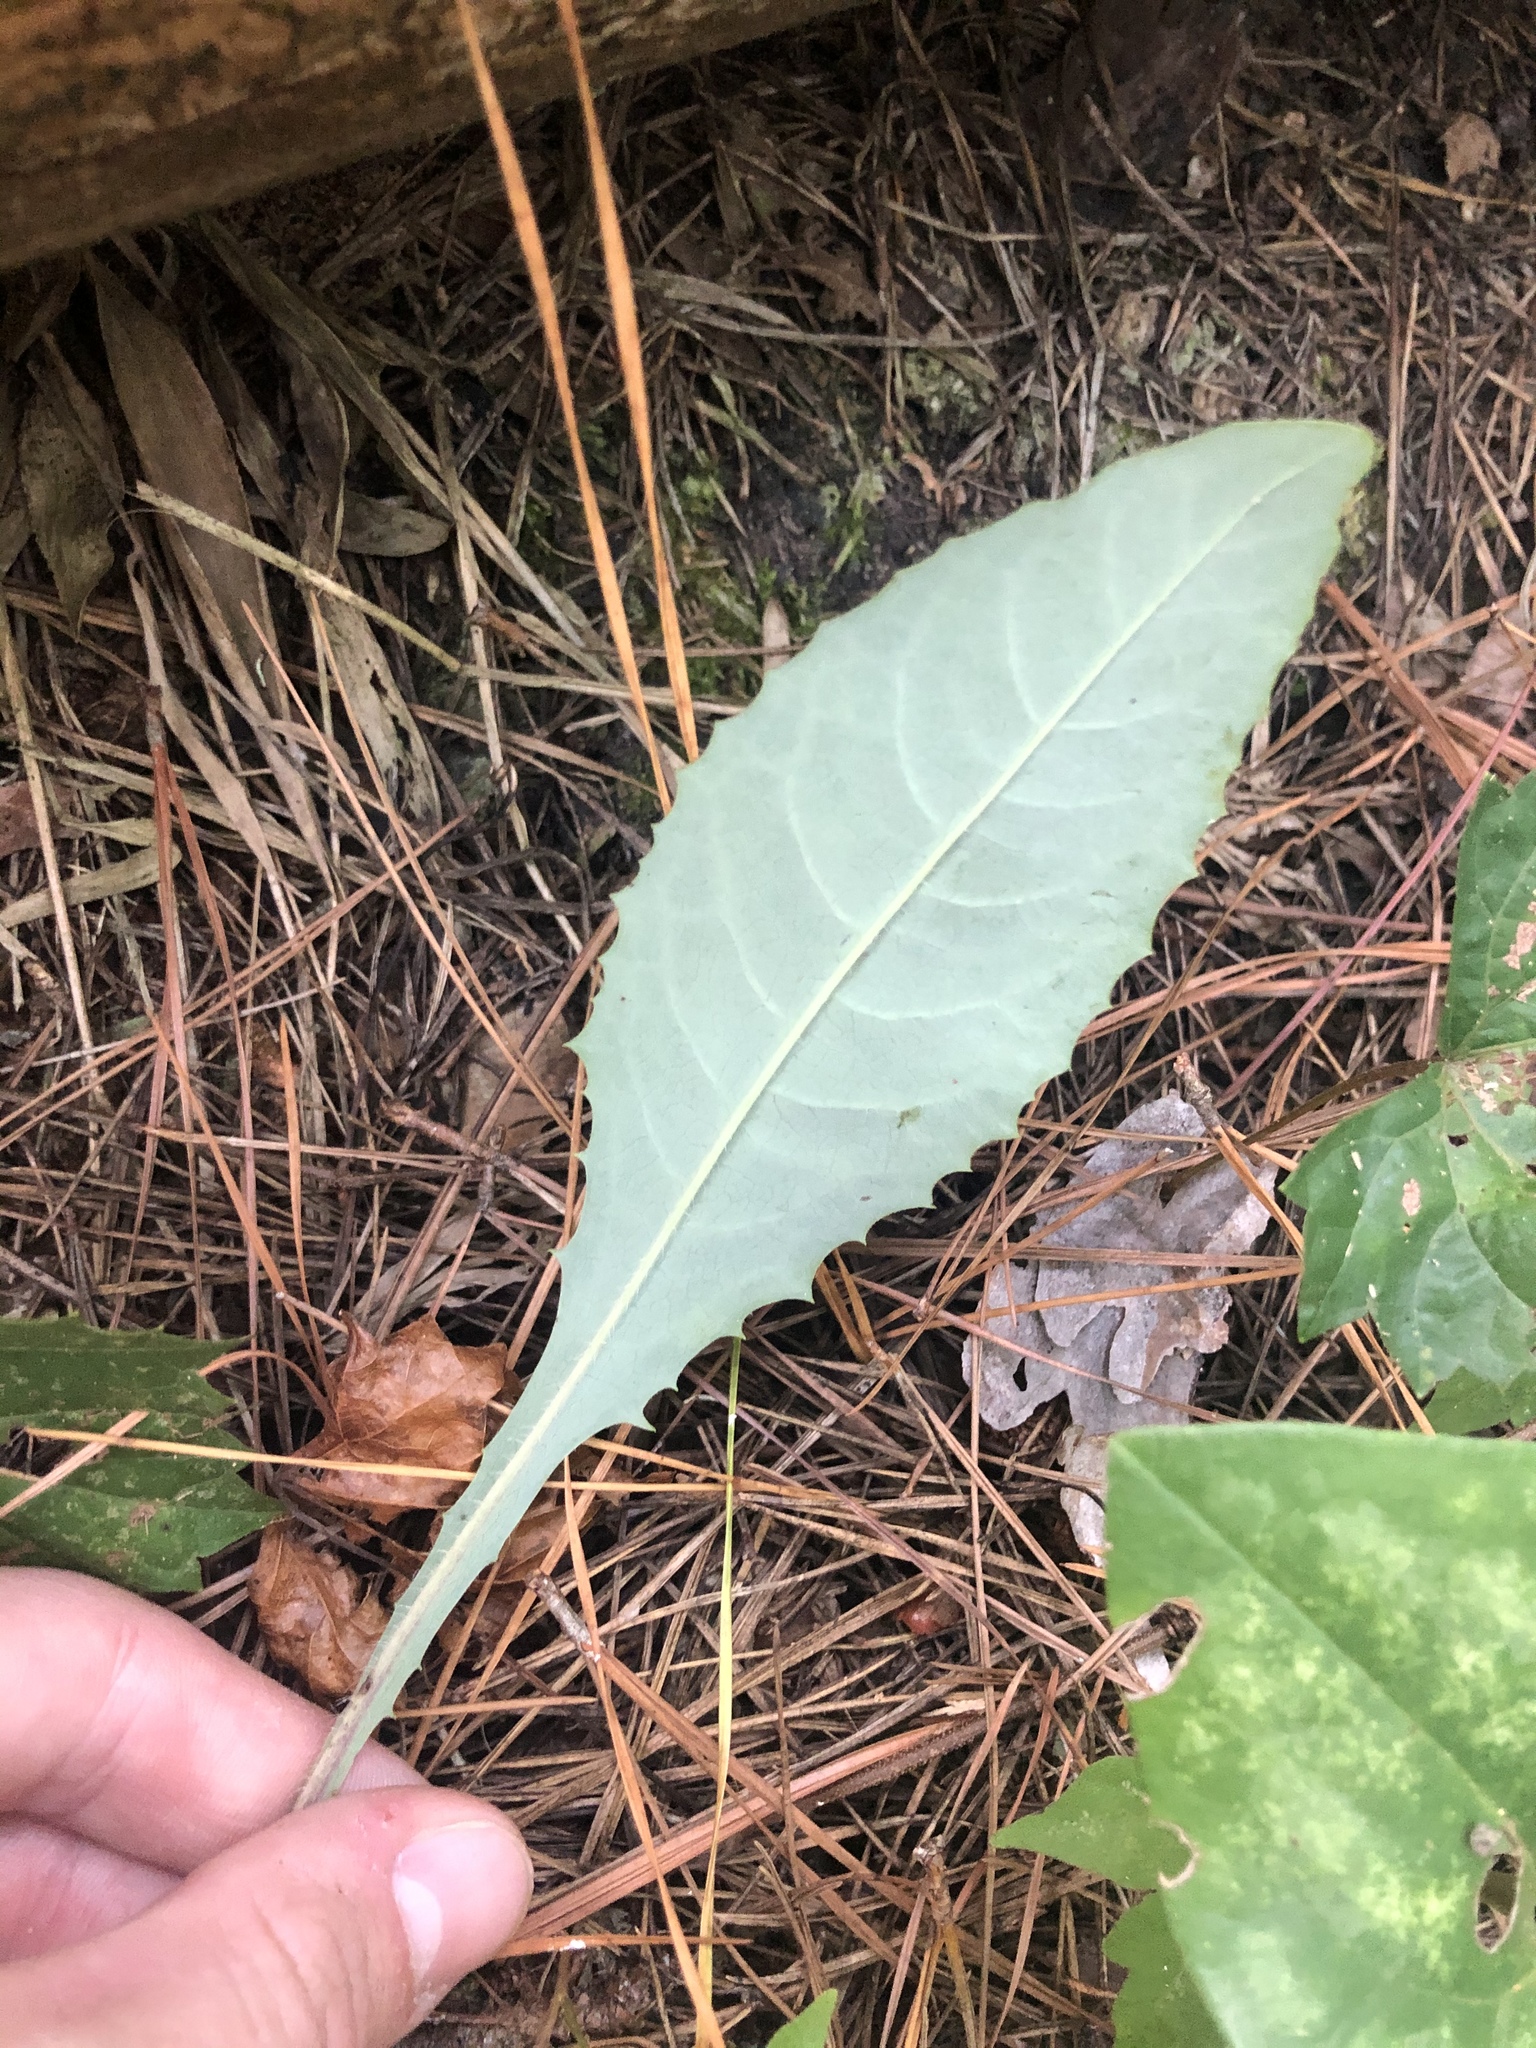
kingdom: Plantae
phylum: Tracheophyta
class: Magnoliopsida
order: Asterales
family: Asteraceae
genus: Lactuca
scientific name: Lactuca floridana
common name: Woodland lettuce
